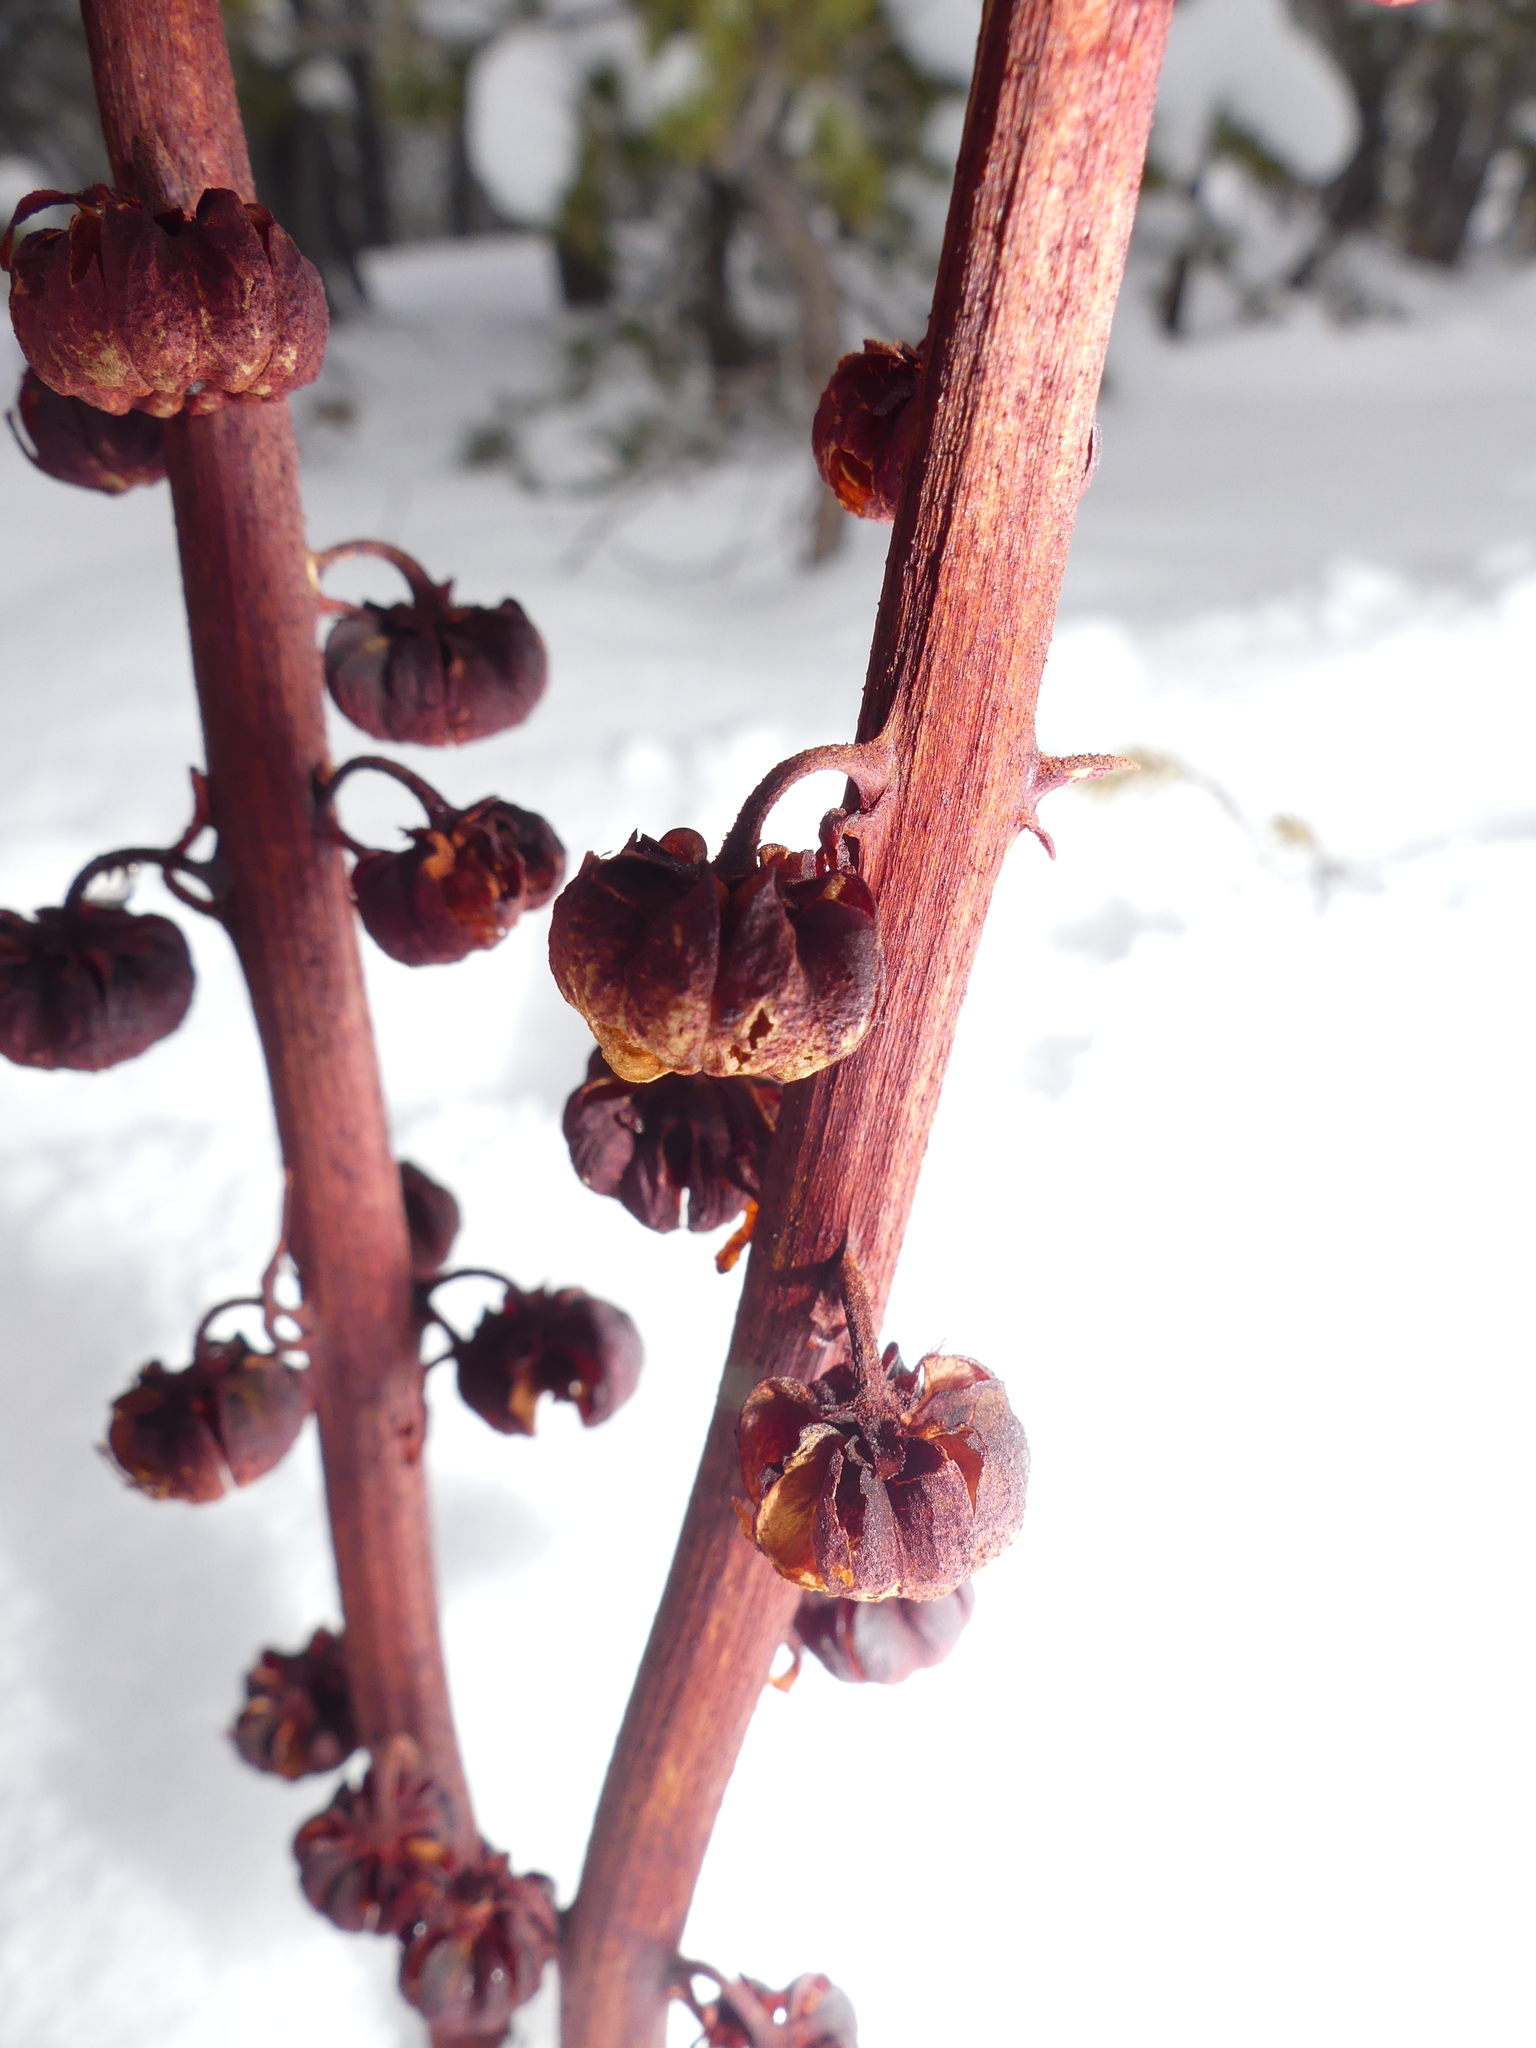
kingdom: Plantae
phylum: Tracheophyta
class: Magnoliopsida
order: Ericales
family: Ericaceae
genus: Pterospora
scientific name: Pterospora andromedea
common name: Giant bird's-nest
